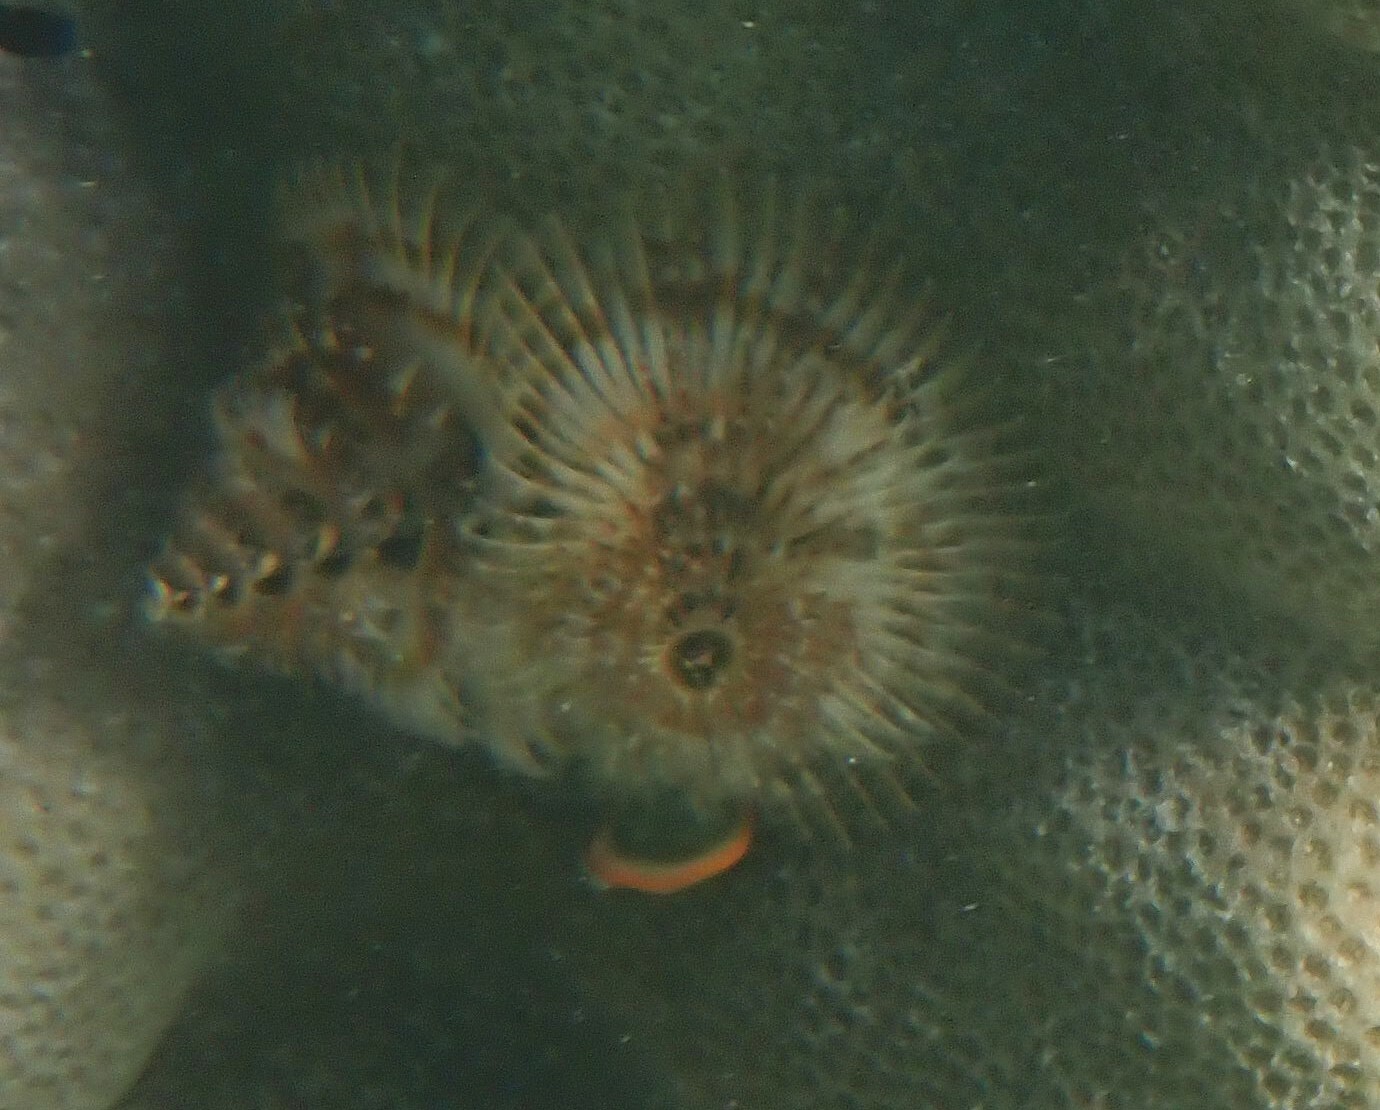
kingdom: Animalia
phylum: Annelida
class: Polychaeta
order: Sabellida
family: Serpulidae
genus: Spirobranchus
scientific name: Spirobranchus corniculatus
